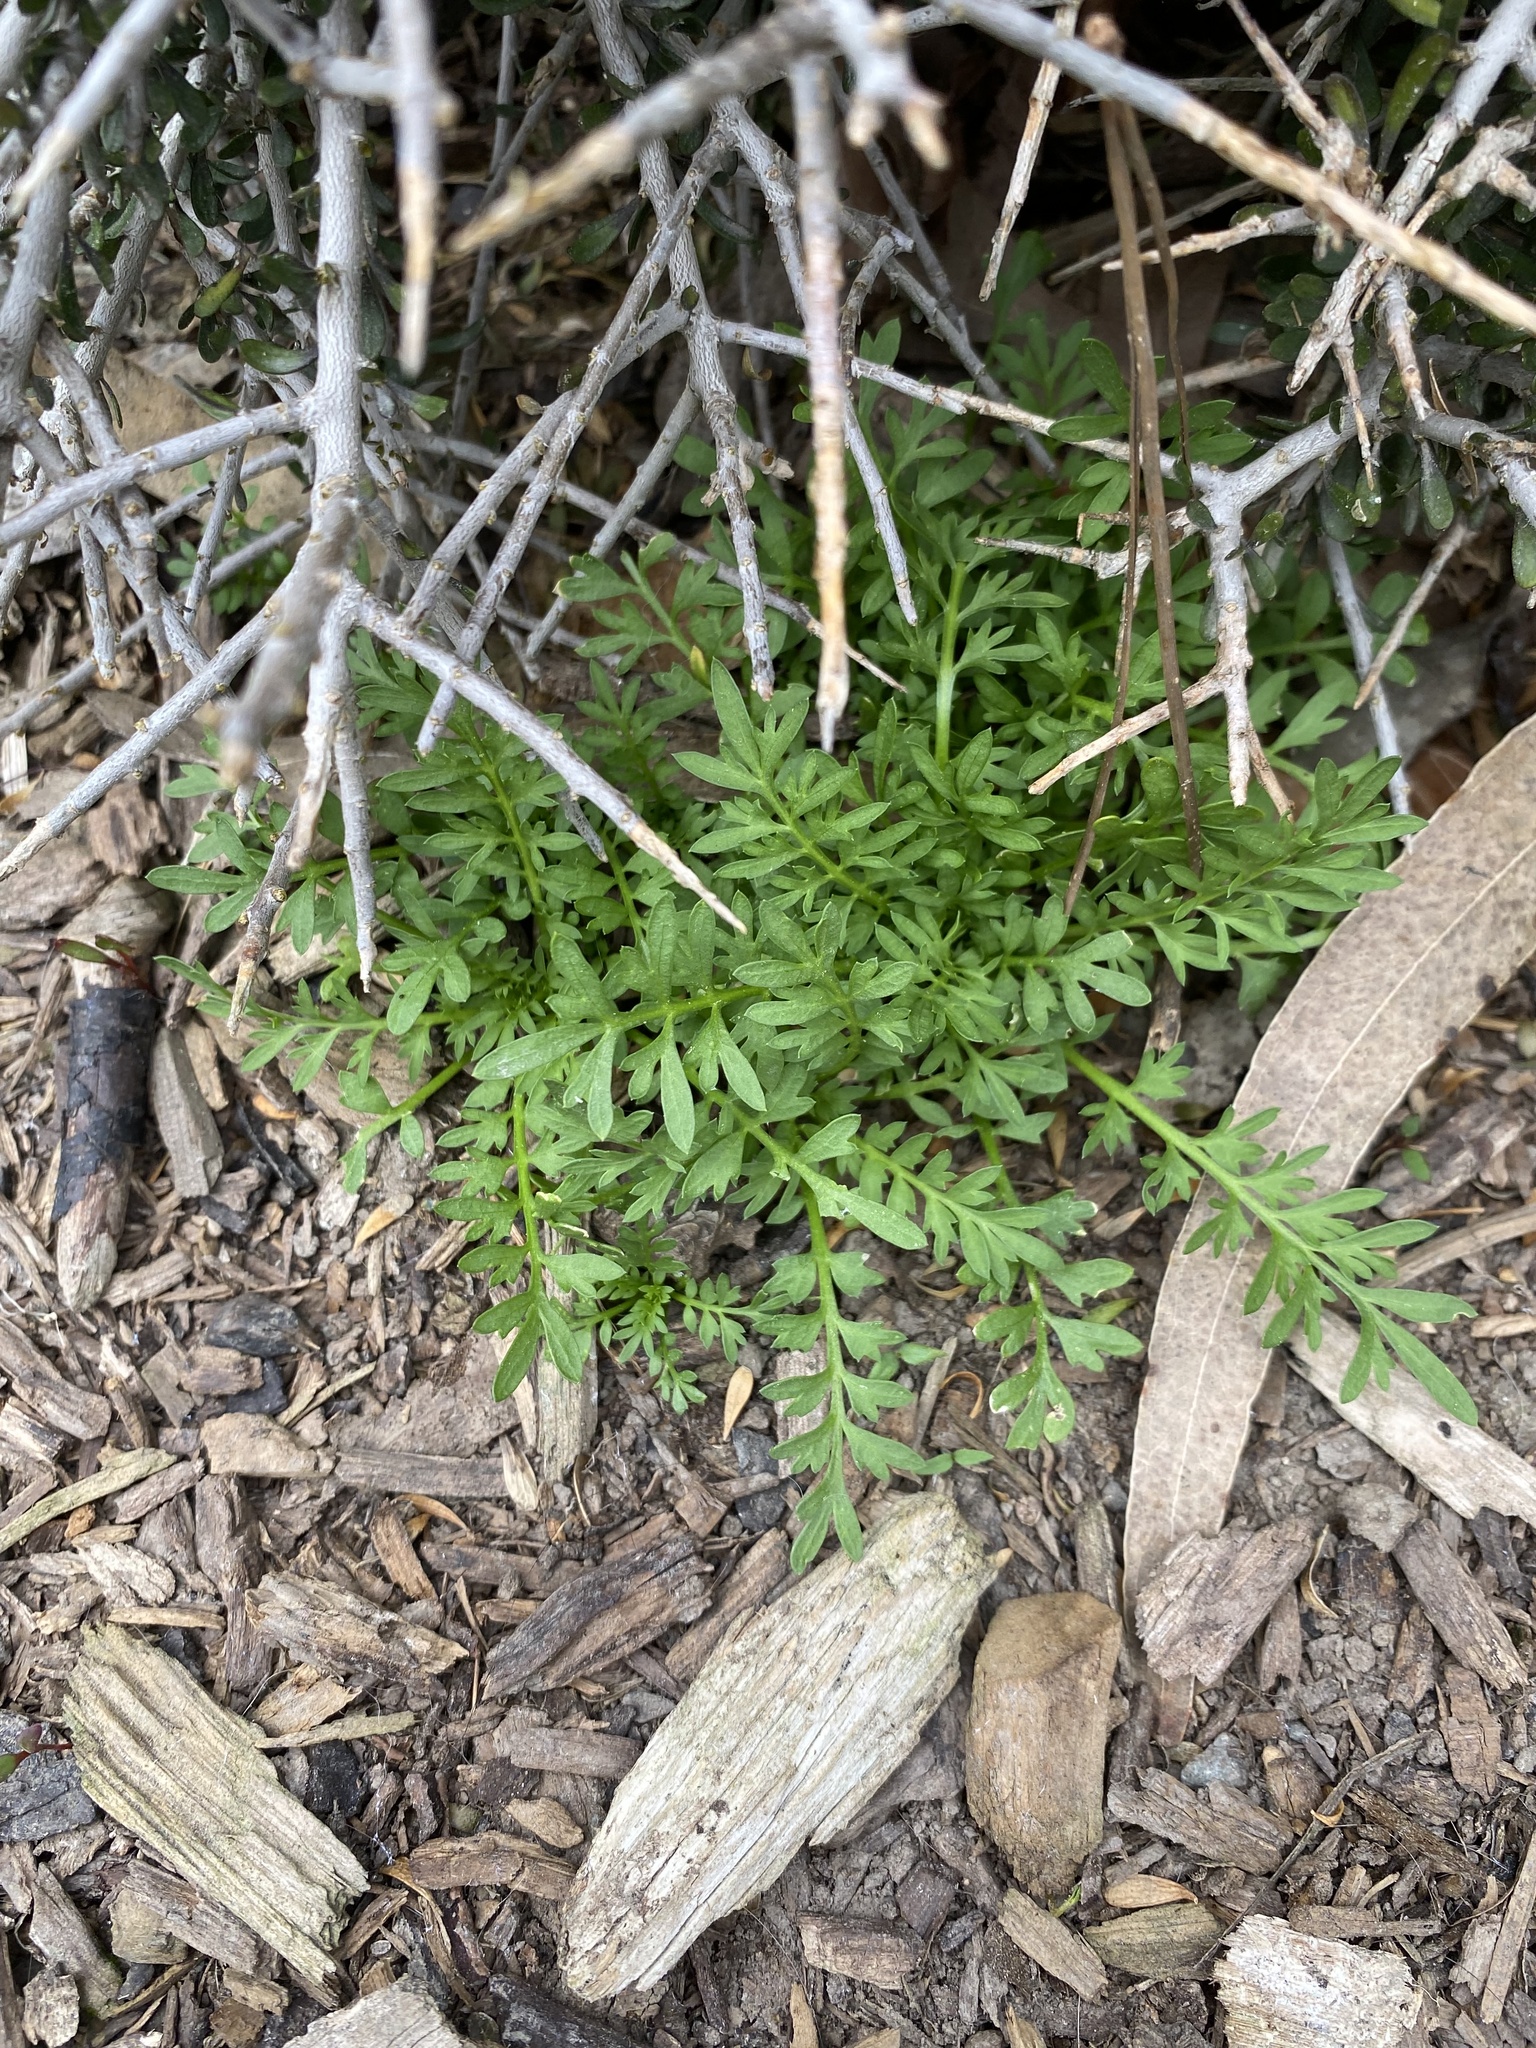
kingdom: Plantae
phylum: Tracheophyta
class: Magnoliopsida
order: Brassicales
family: Brassicaceae
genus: Lepidium
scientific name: Lepidium didymum
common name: Lesser swinecress
